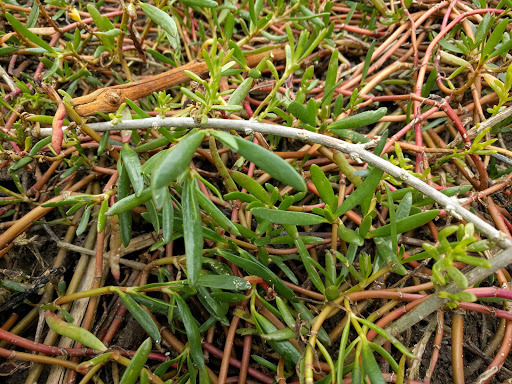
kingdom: Plantae
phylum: Tracheophyta
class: Magnoliopsida
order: Brassicales
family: Bataceae
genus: Batis
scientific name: Batis maritima
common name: Turtleweed
